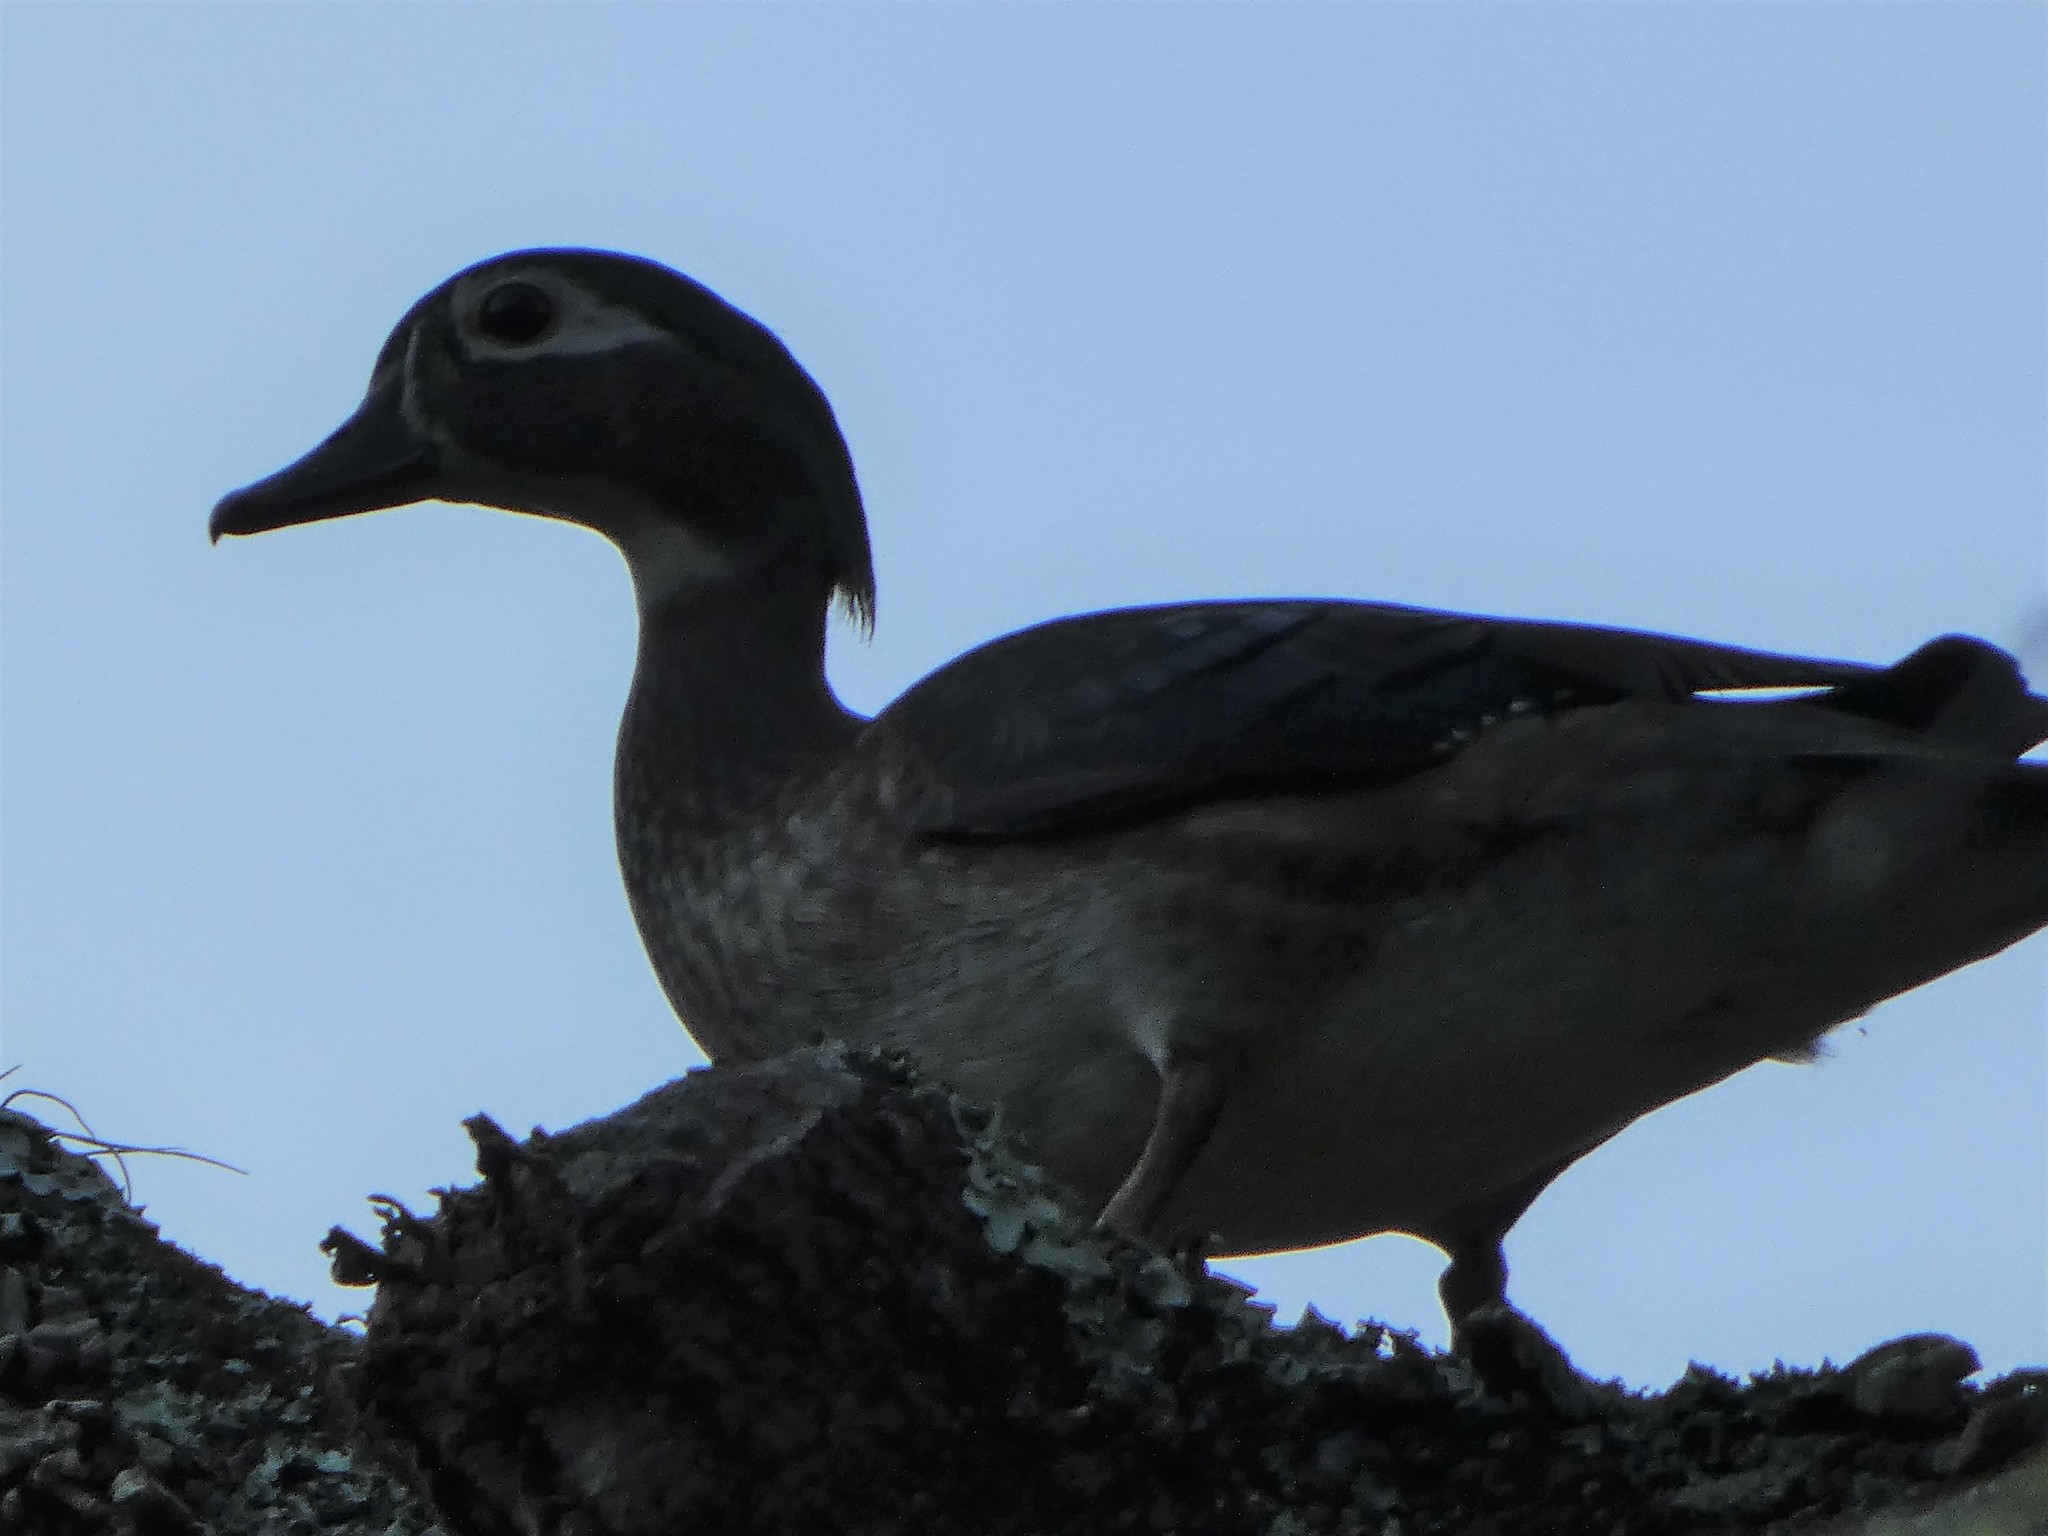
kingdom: Animalia
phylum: Chordata
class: Aves
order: Anseriformes
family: Anatidae
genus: Aix
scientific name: Aix sponsa
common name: Wood duck
